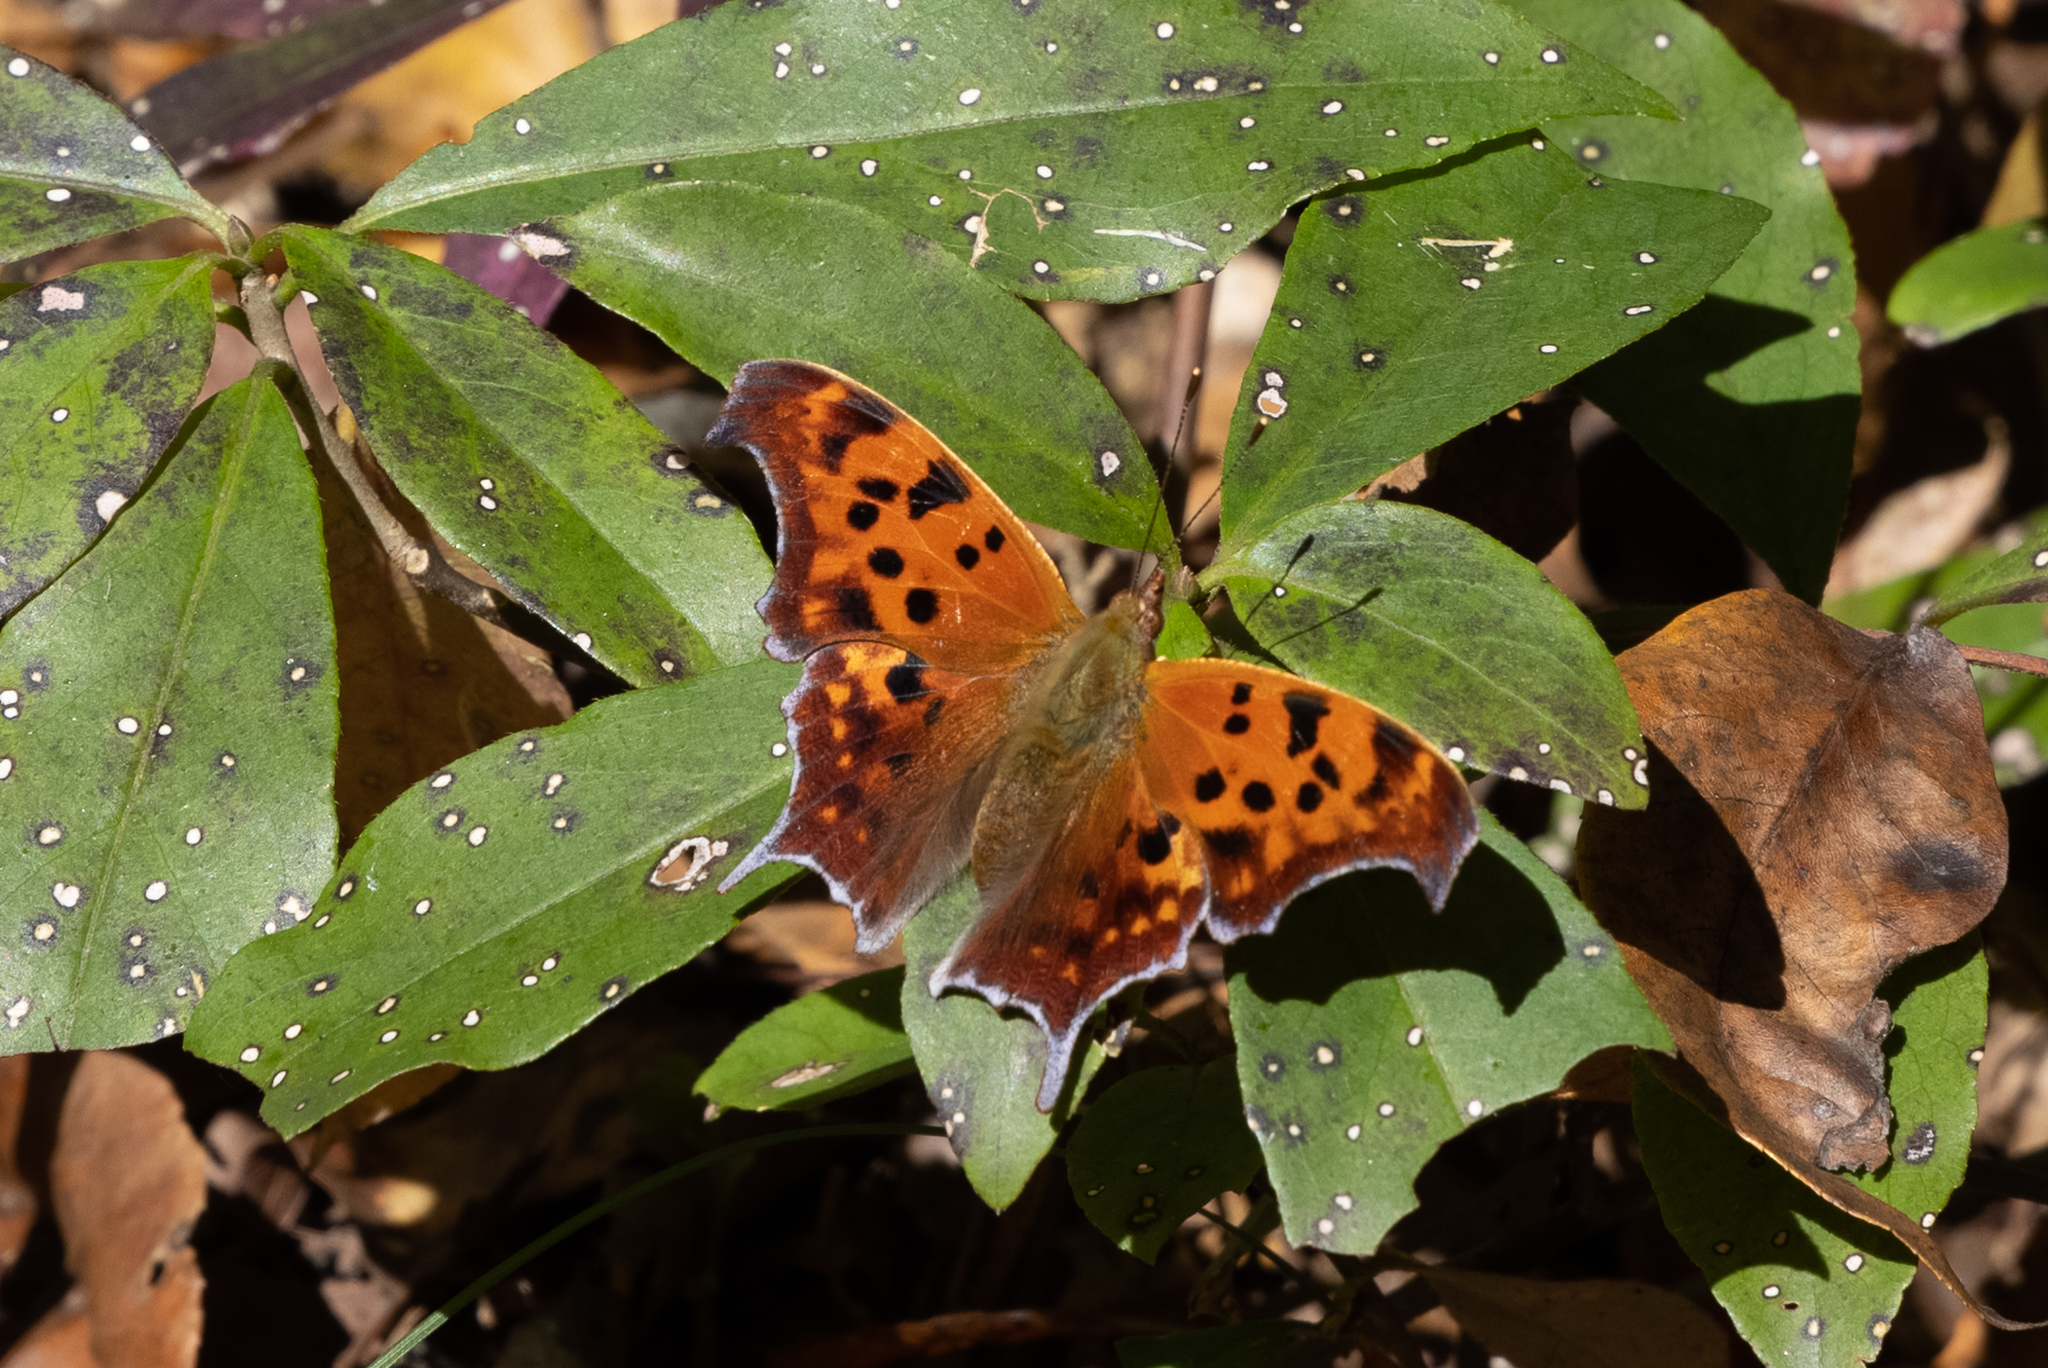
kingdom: Animalia
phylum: Arthropoda
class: Insecta
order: Lepidoptera
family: Nymphalidae
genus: Polygonia
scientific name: Polygonia interrogationis
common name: Question mark
